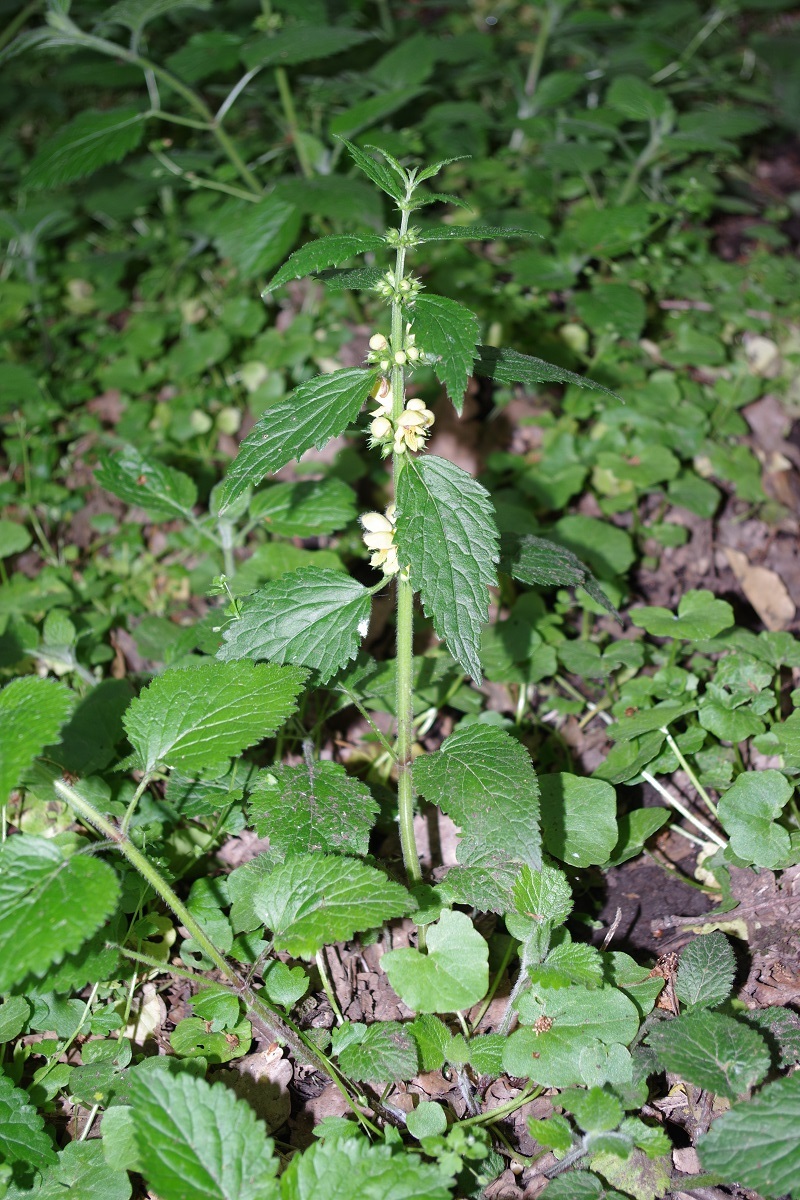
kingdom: Plantae
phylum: Tracheophyta
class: Magnoliopsida
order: Lamiales
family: Lamiaceae
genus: Lamium
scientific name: Lamium galeobdolon
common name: Yellow archangel
